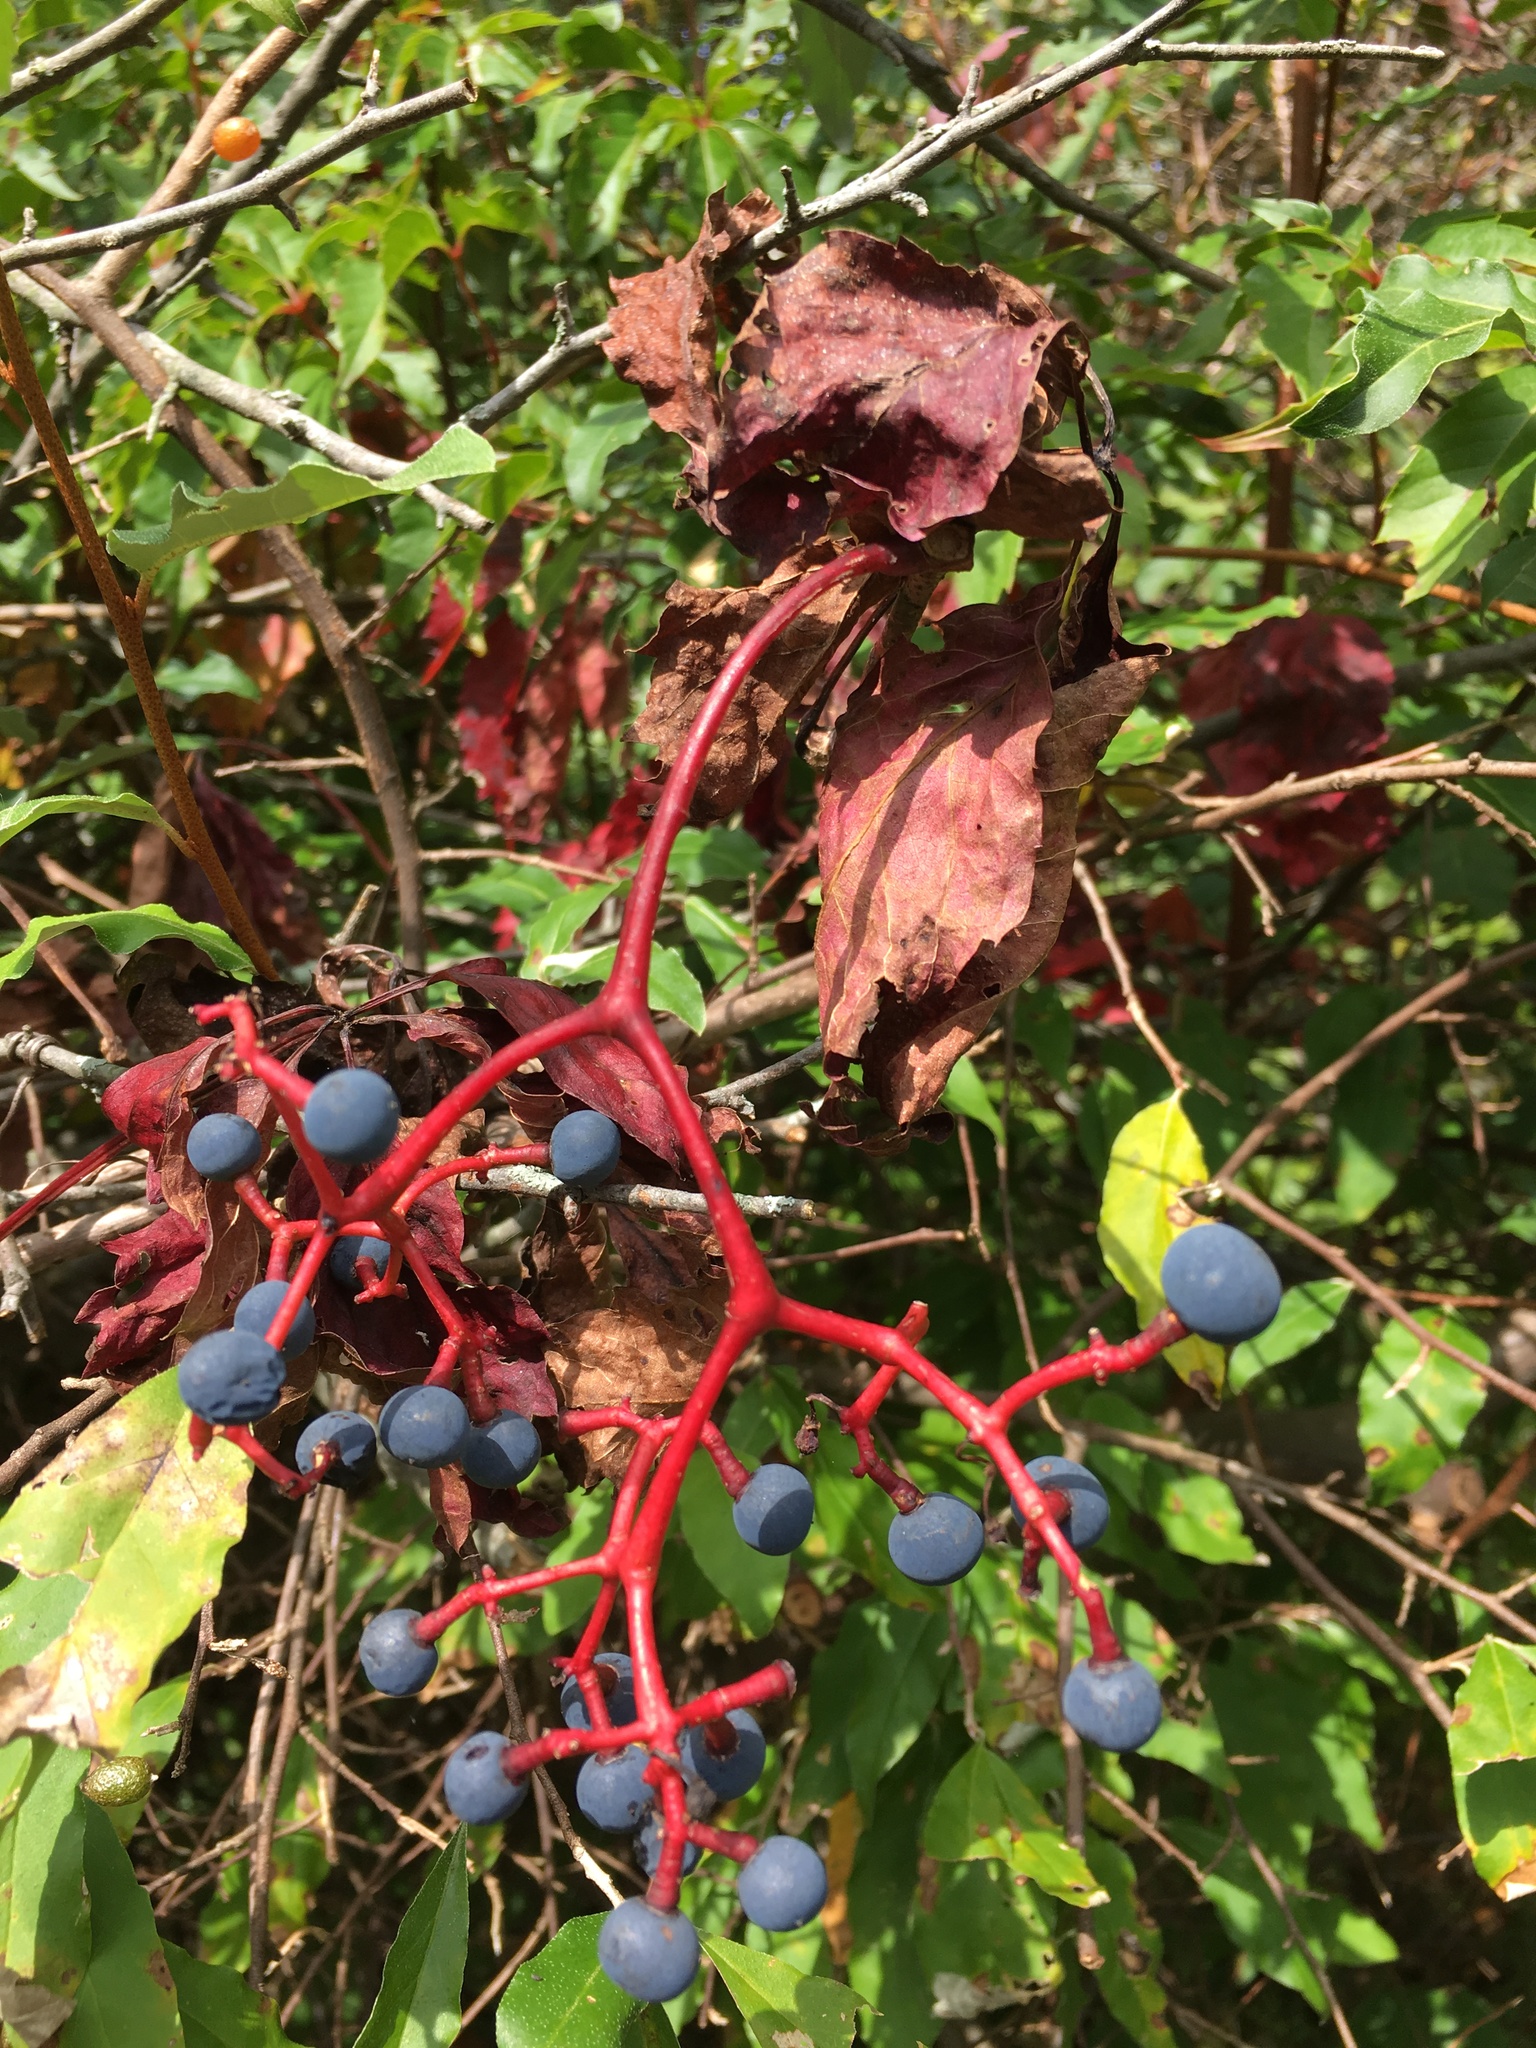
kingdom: Plantae
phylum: Tracheophyta
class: Magnoliopsida
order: Vitales
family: Vitaceae
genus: Parthenocissus
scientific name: Parthenocissus quinquefolia
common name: Virginia-creeper
